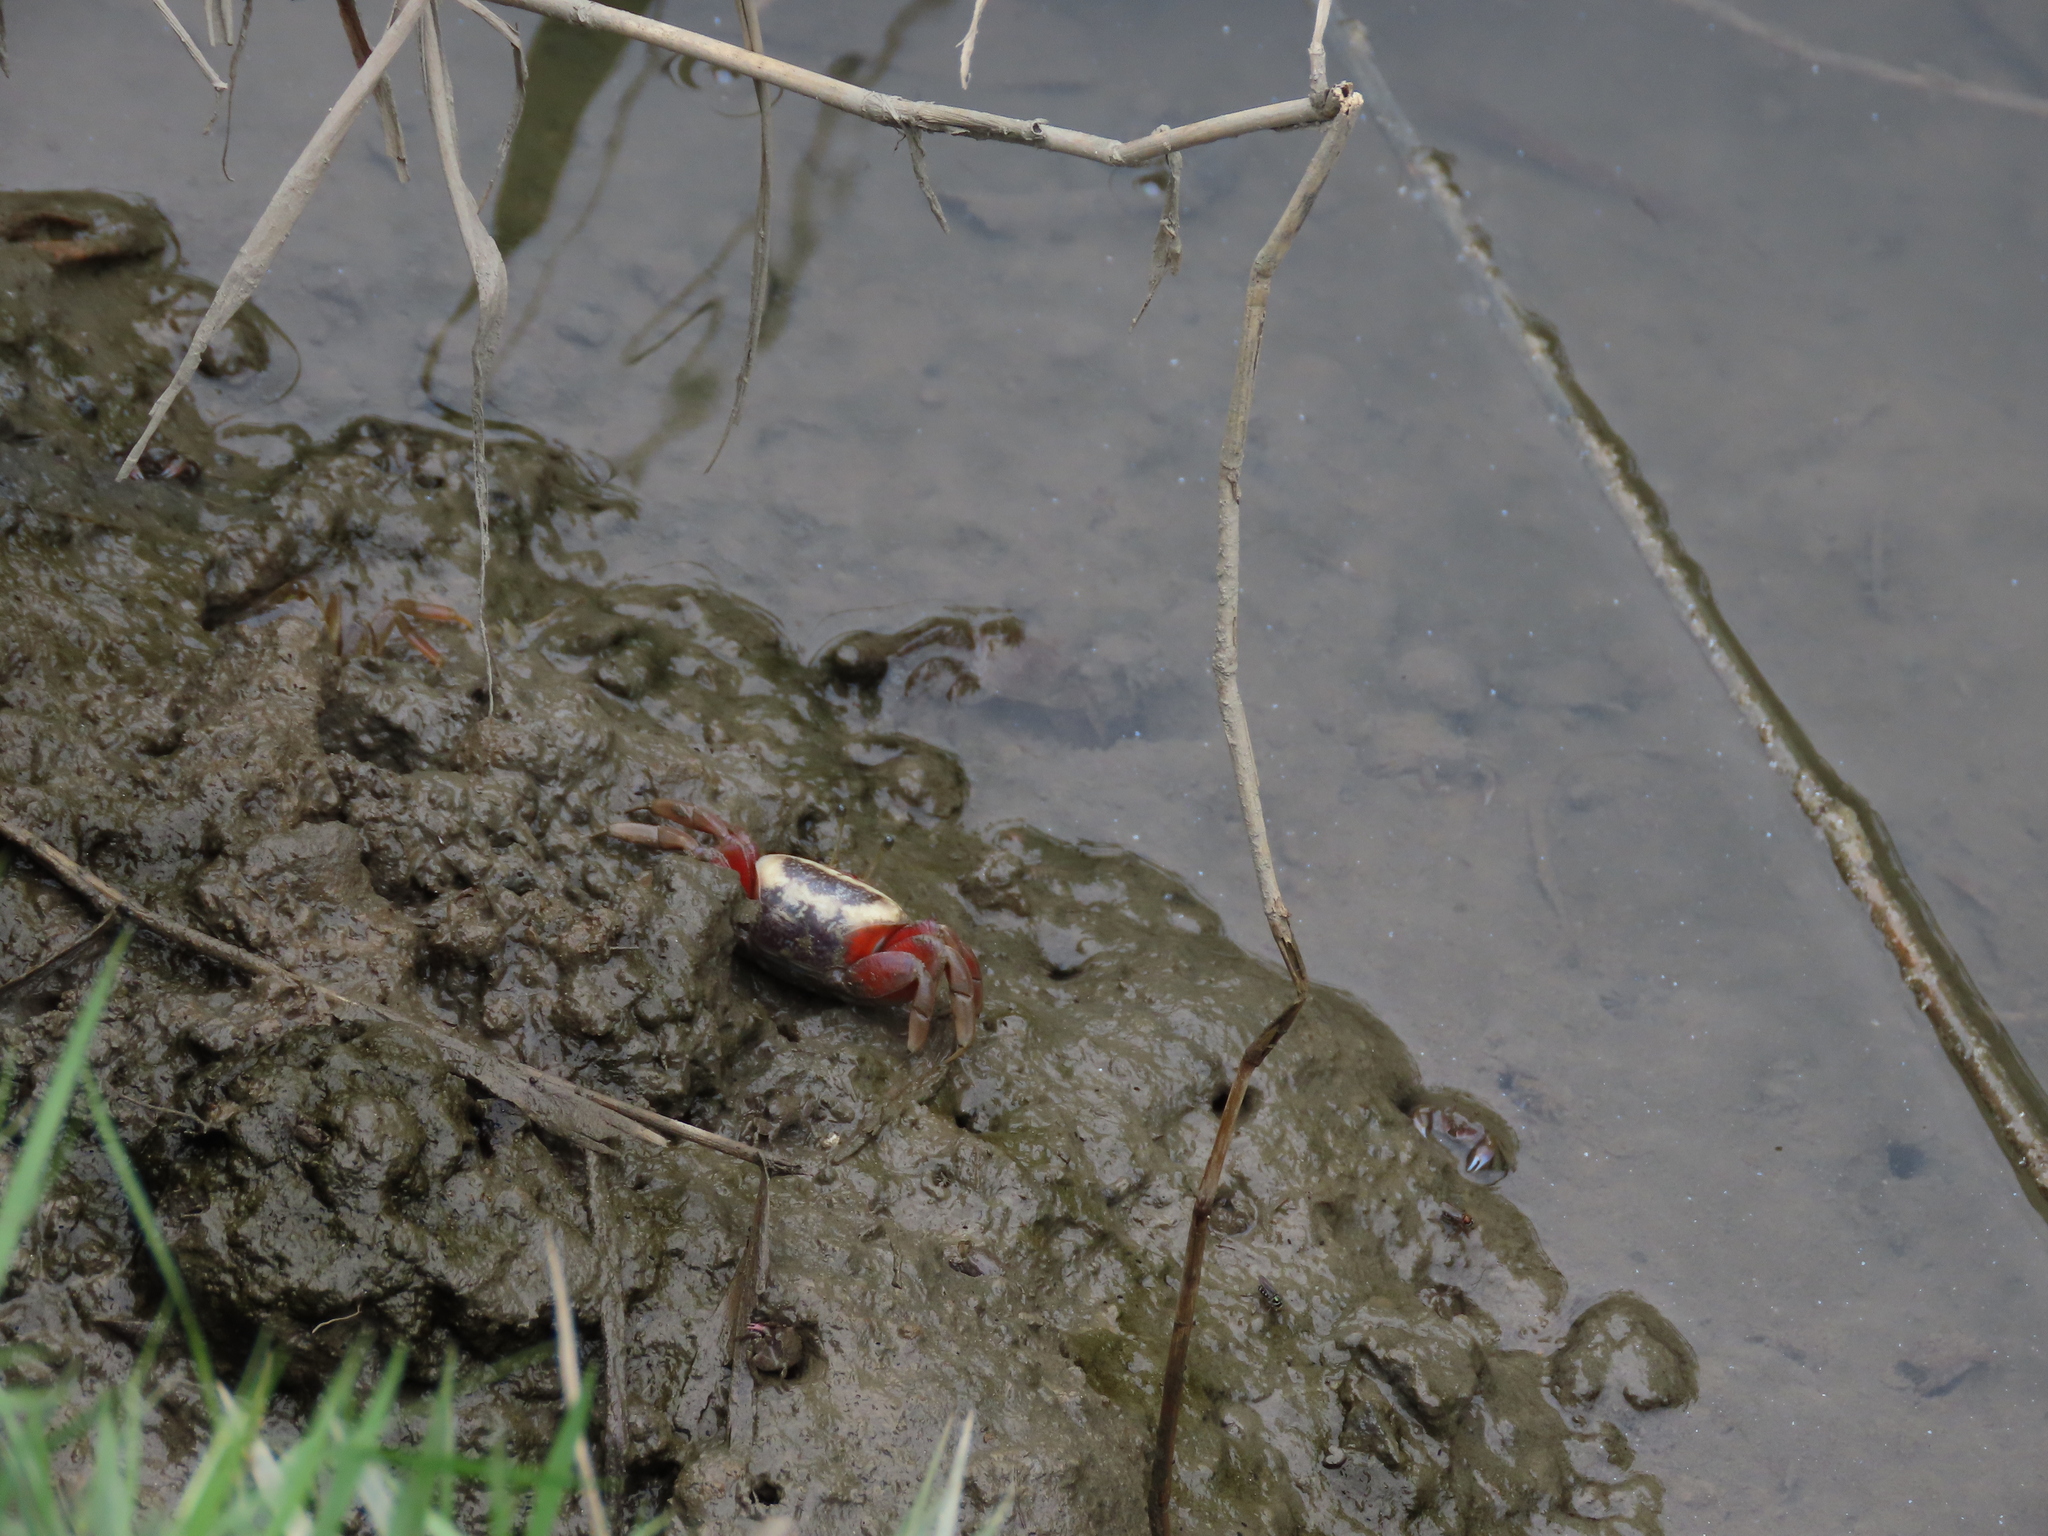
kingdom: Animalia
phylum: Arthropoda
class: Malacostraca
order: Decapoda
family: Ocypodidae
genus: Tubuca
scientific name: Tubuca arcuata
